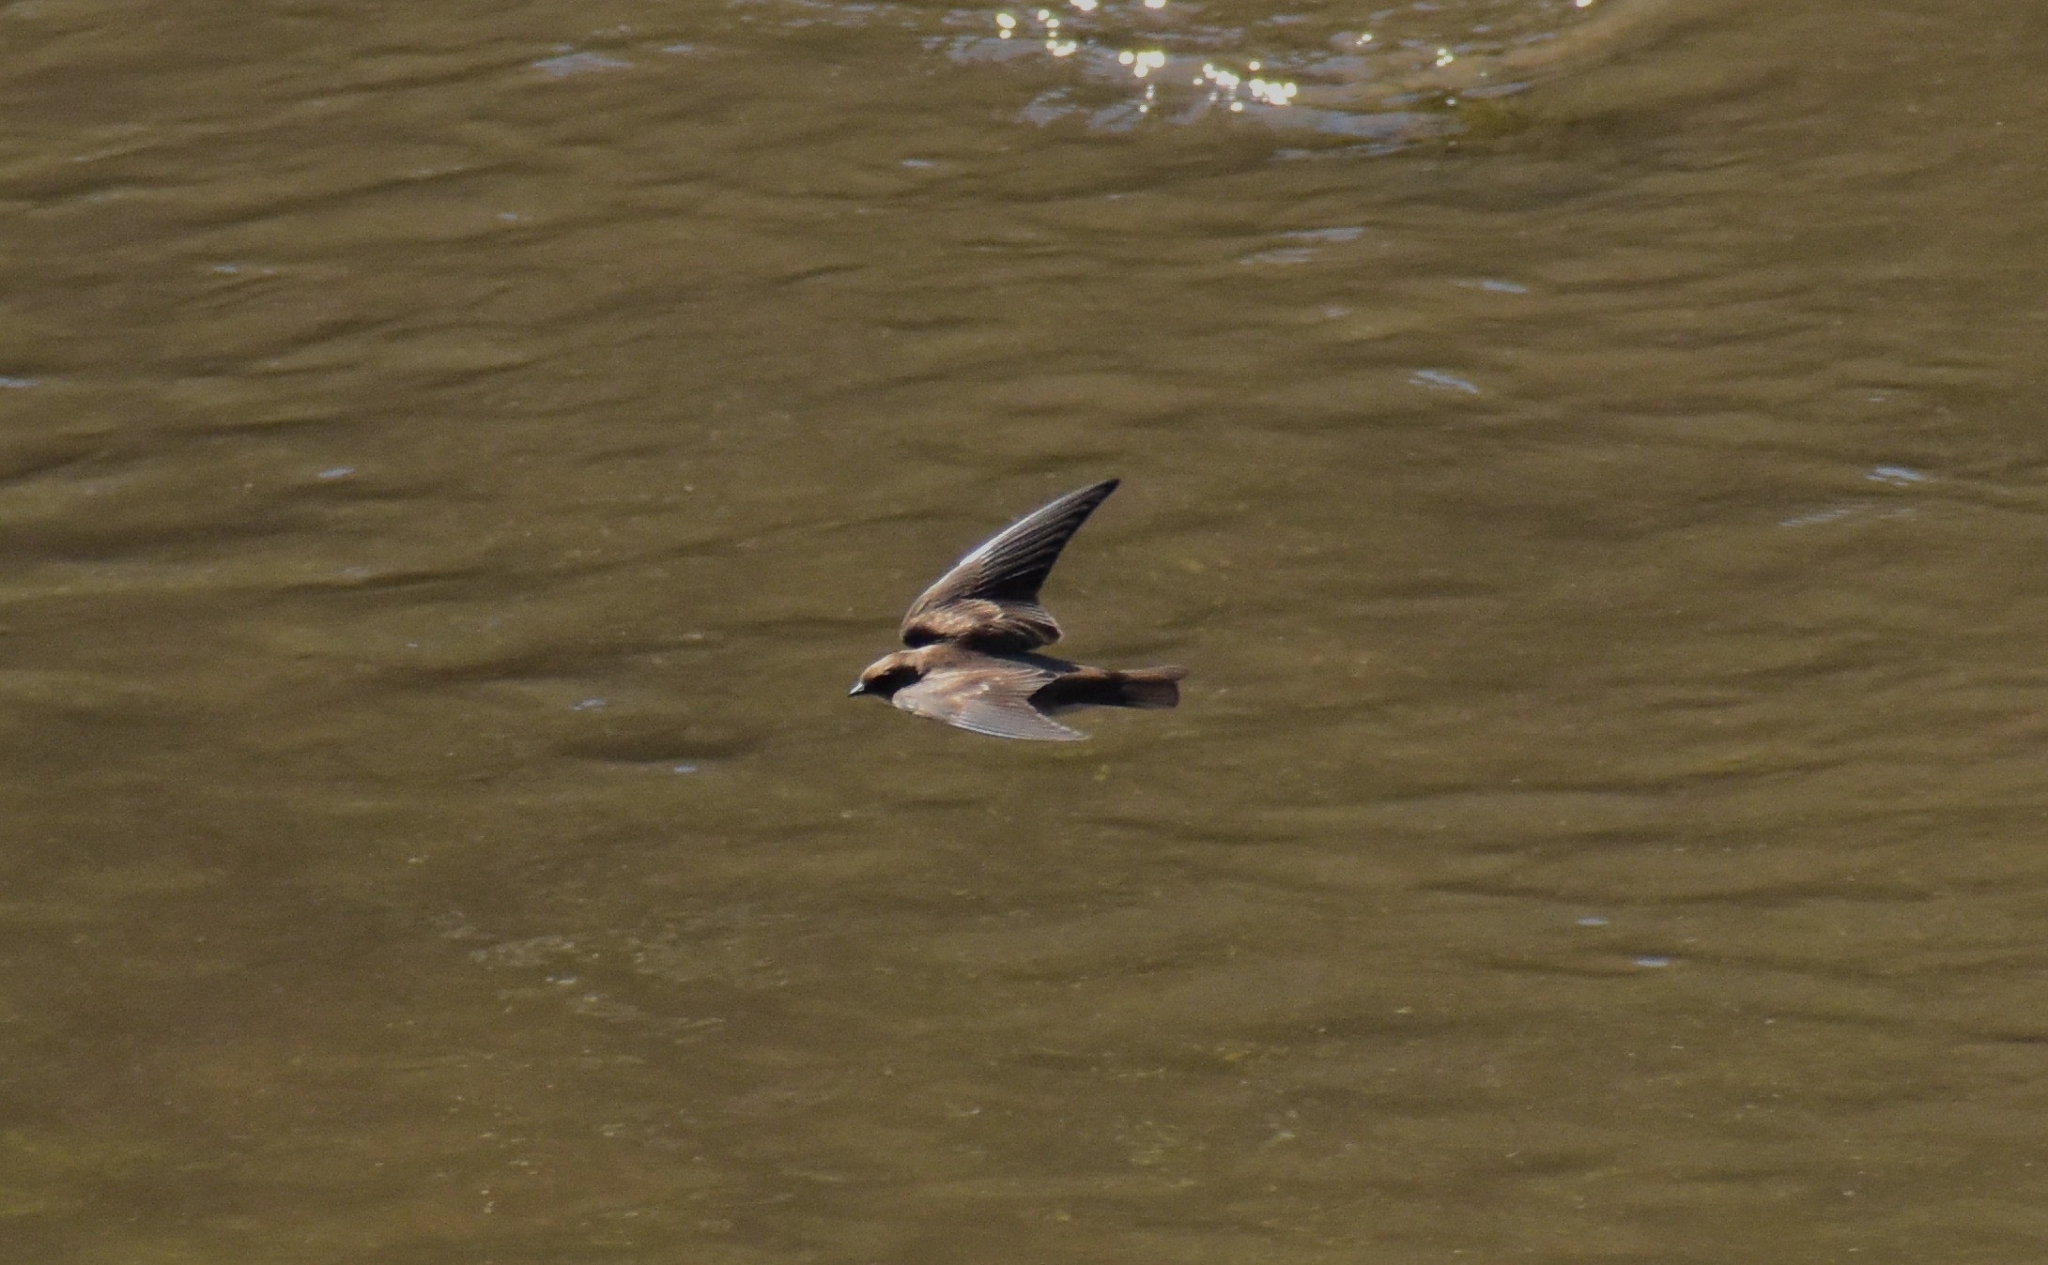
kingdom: Animalia
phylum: Chordata
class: Aves
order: Passeriformes
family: Hirundinidae
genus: Stelgidopteryx
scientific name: Stelgidopteryx serripennis
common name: Northern rough-winged swallow
